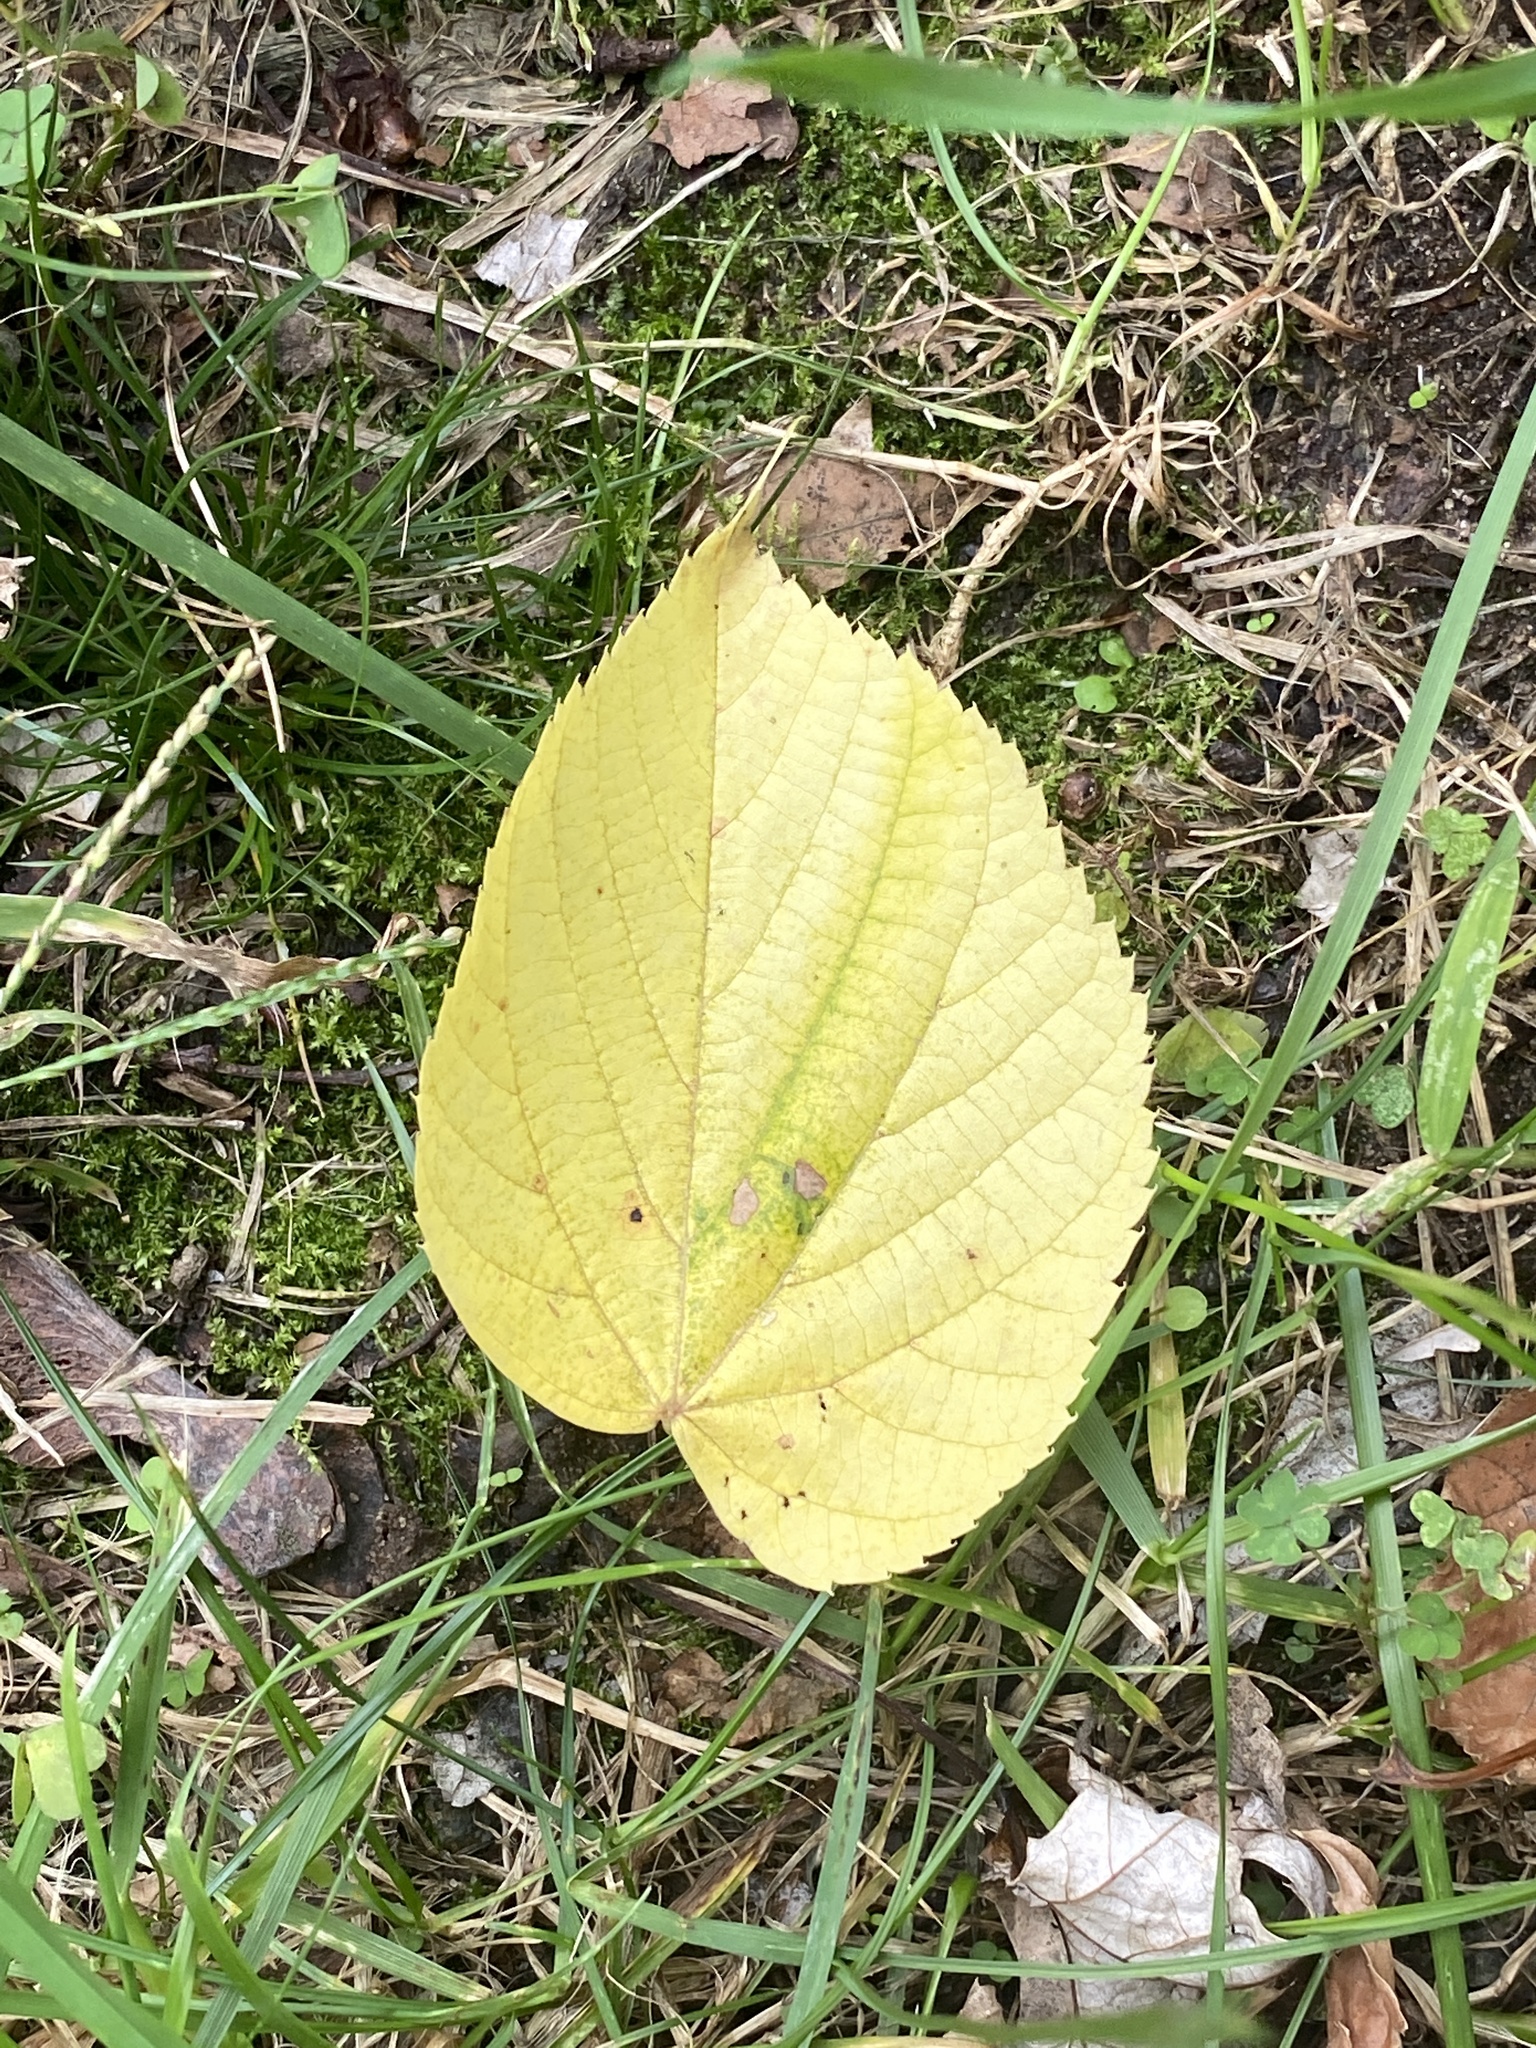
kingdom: Plantae
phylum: Tracheophyta
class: Magnoliopsida
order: Malvales
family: Malvaceae
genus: Tilia
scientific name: Tilia americana
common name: Basswood
